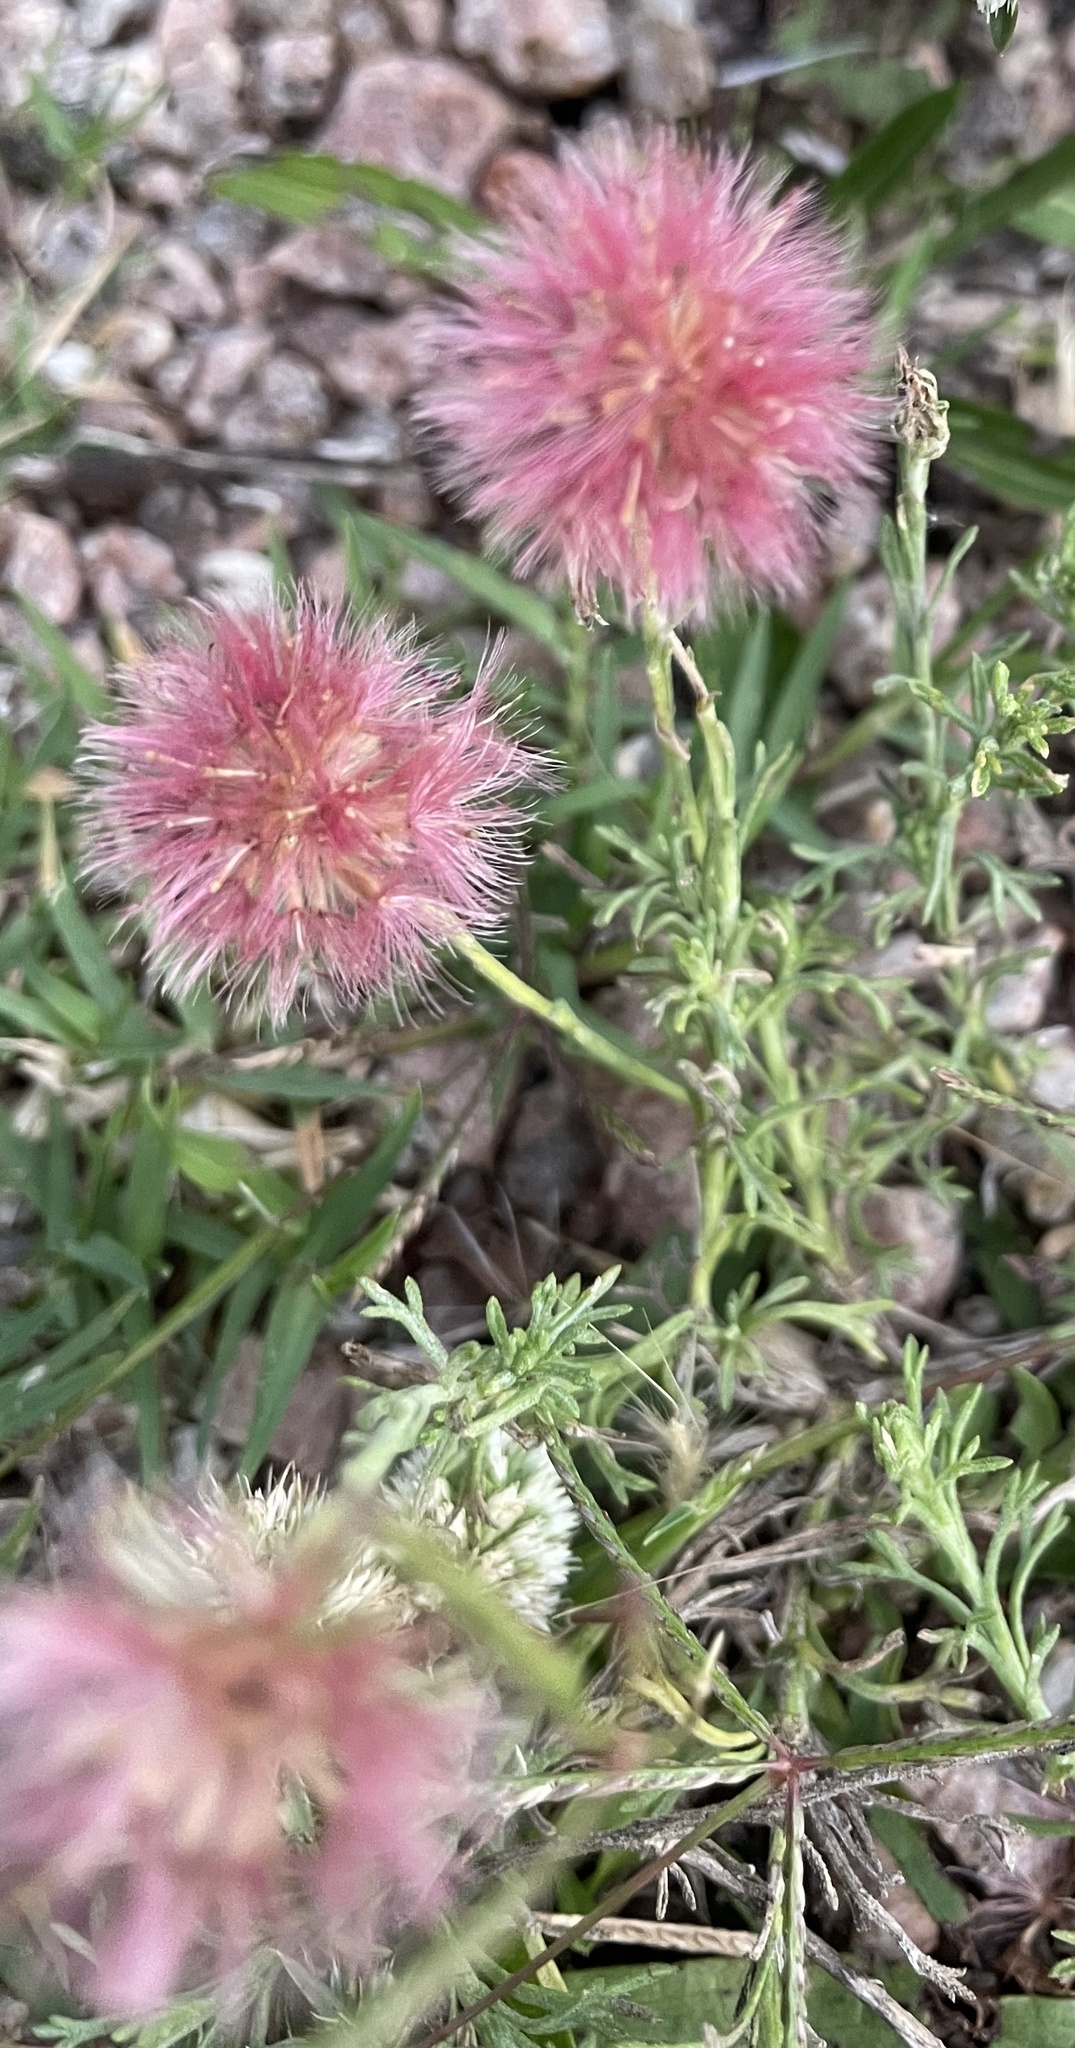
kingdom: Plantae
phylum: Tracheophyta
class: Magnoliopsida
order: Asterales
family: Asteraceae
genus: Noticastrum
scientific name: Noticastrum diffusum
